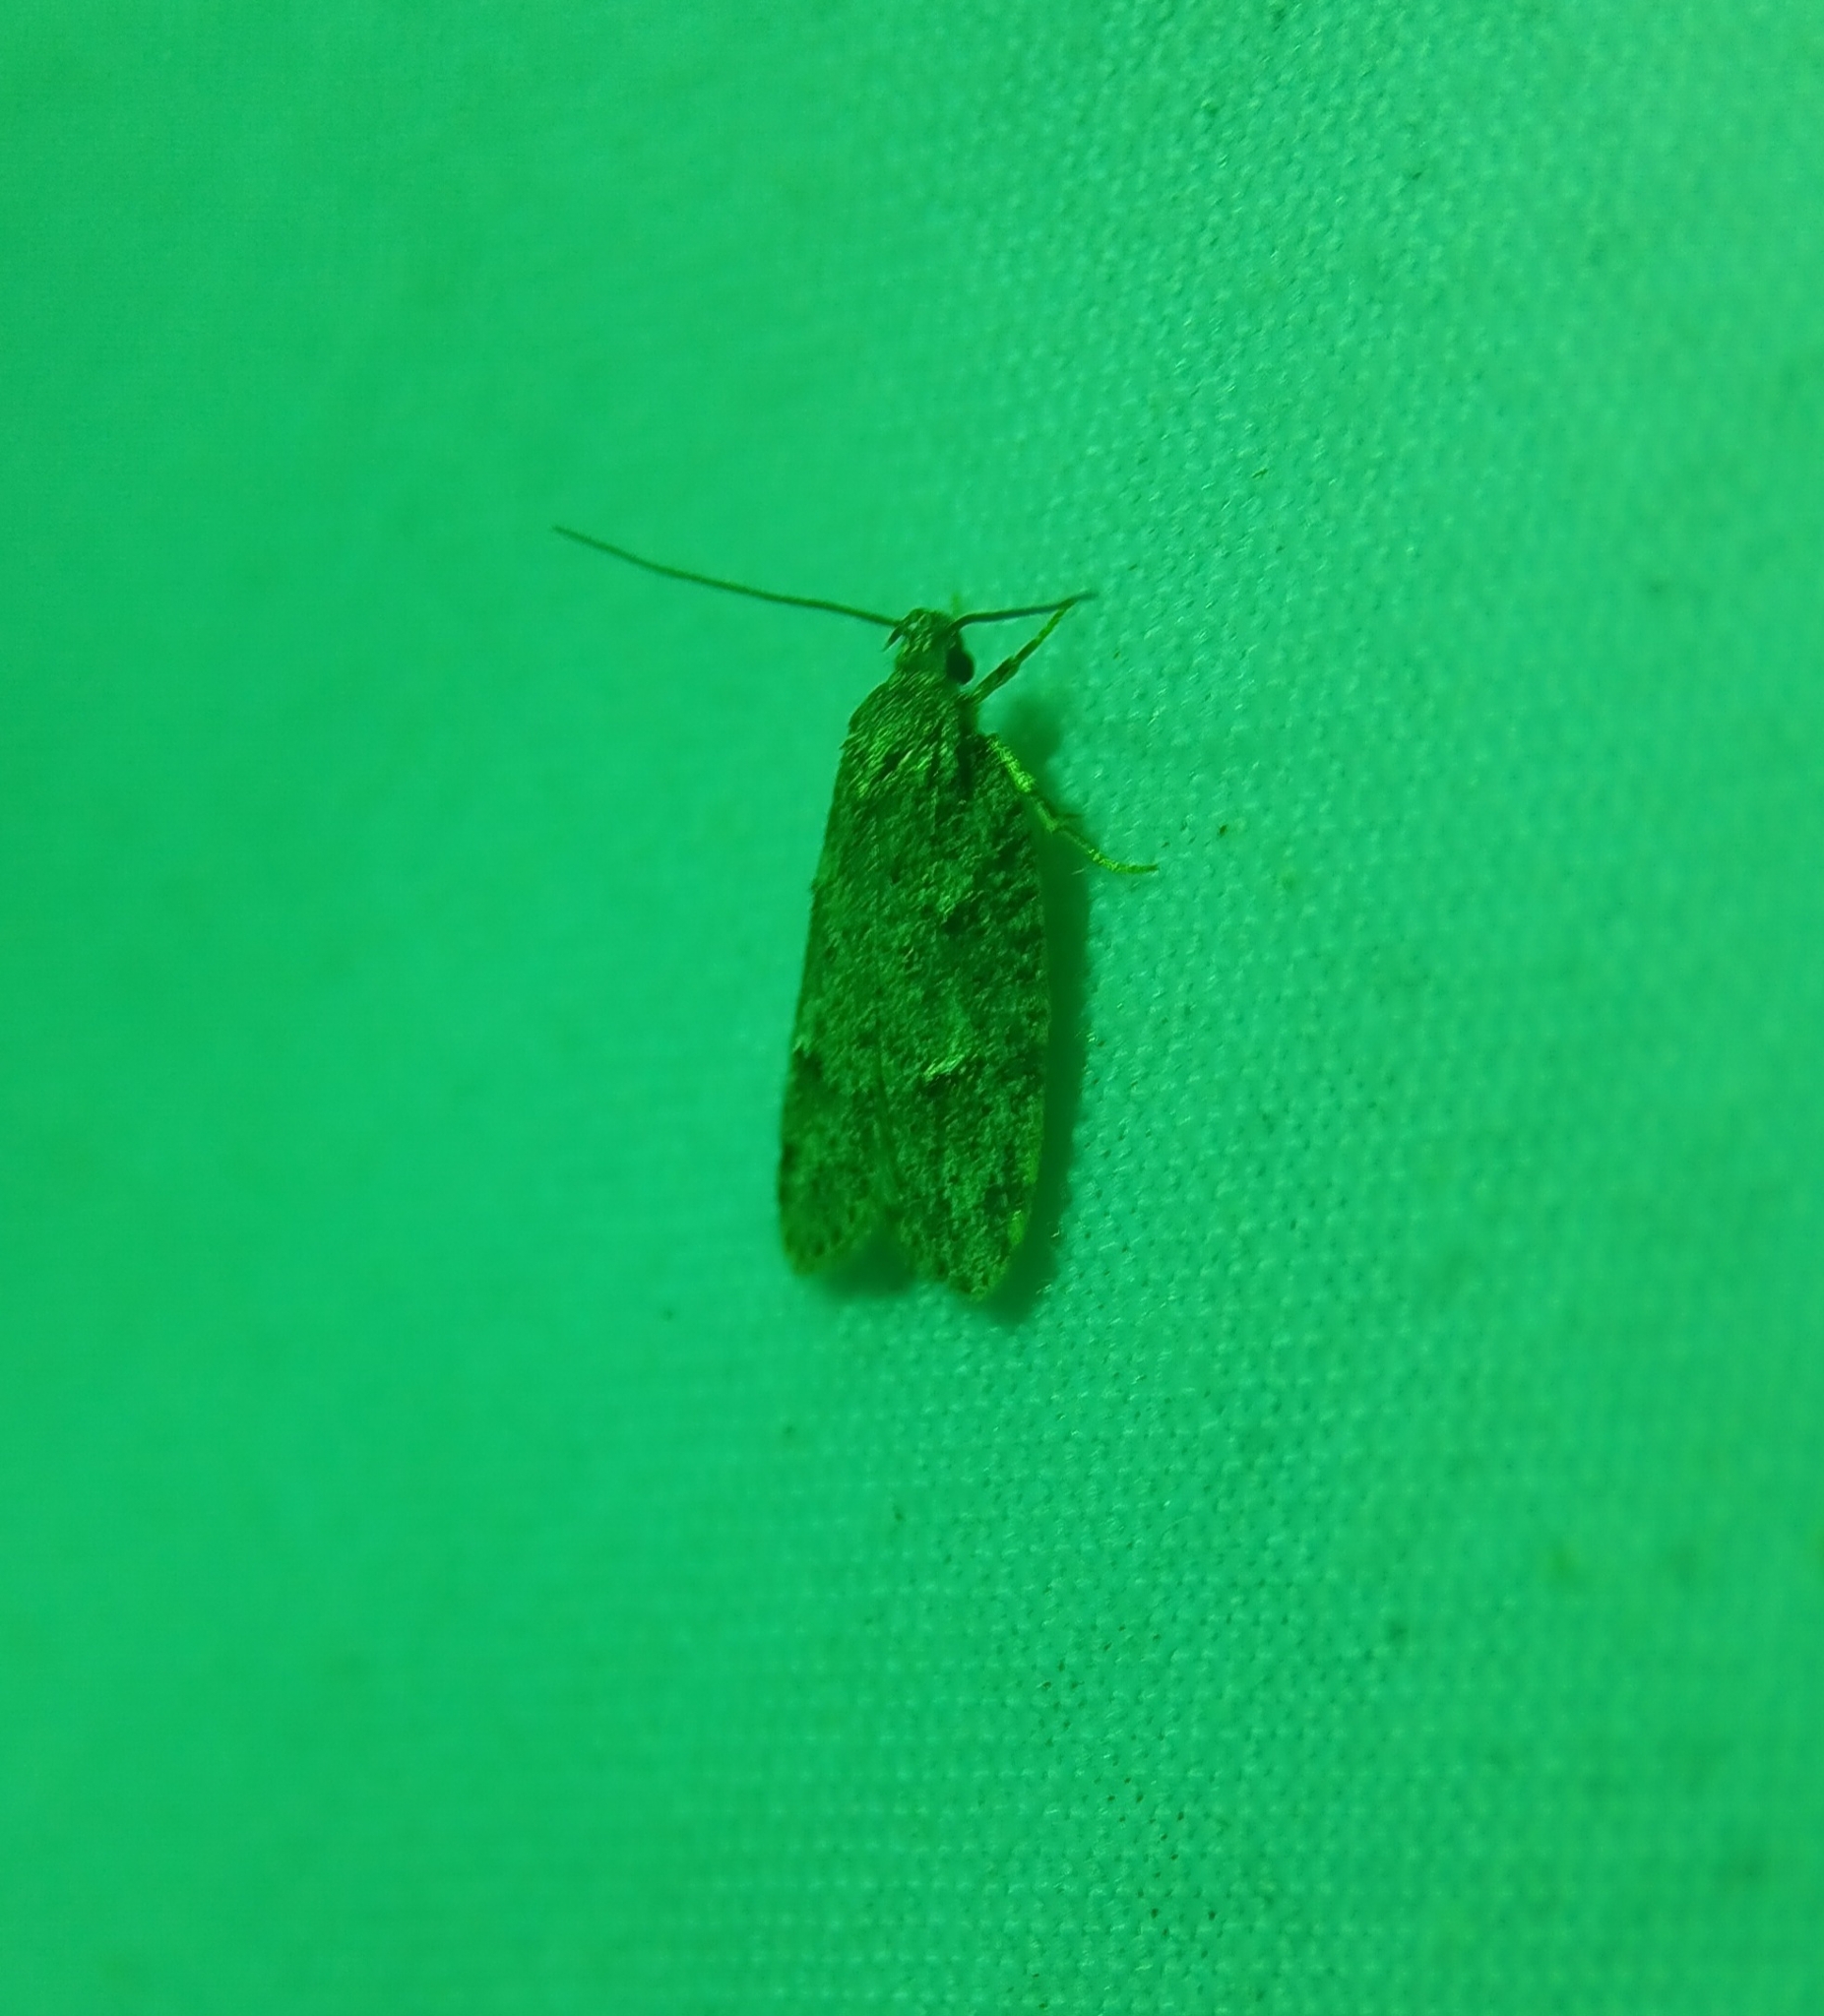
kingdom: Animalia
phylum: Arthropoda
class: Insecta
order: Lepidoptera
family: Depressariidae
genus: Bibarrambla
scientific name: Bibarrambla allenella
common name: Bog bibarrambla moth
